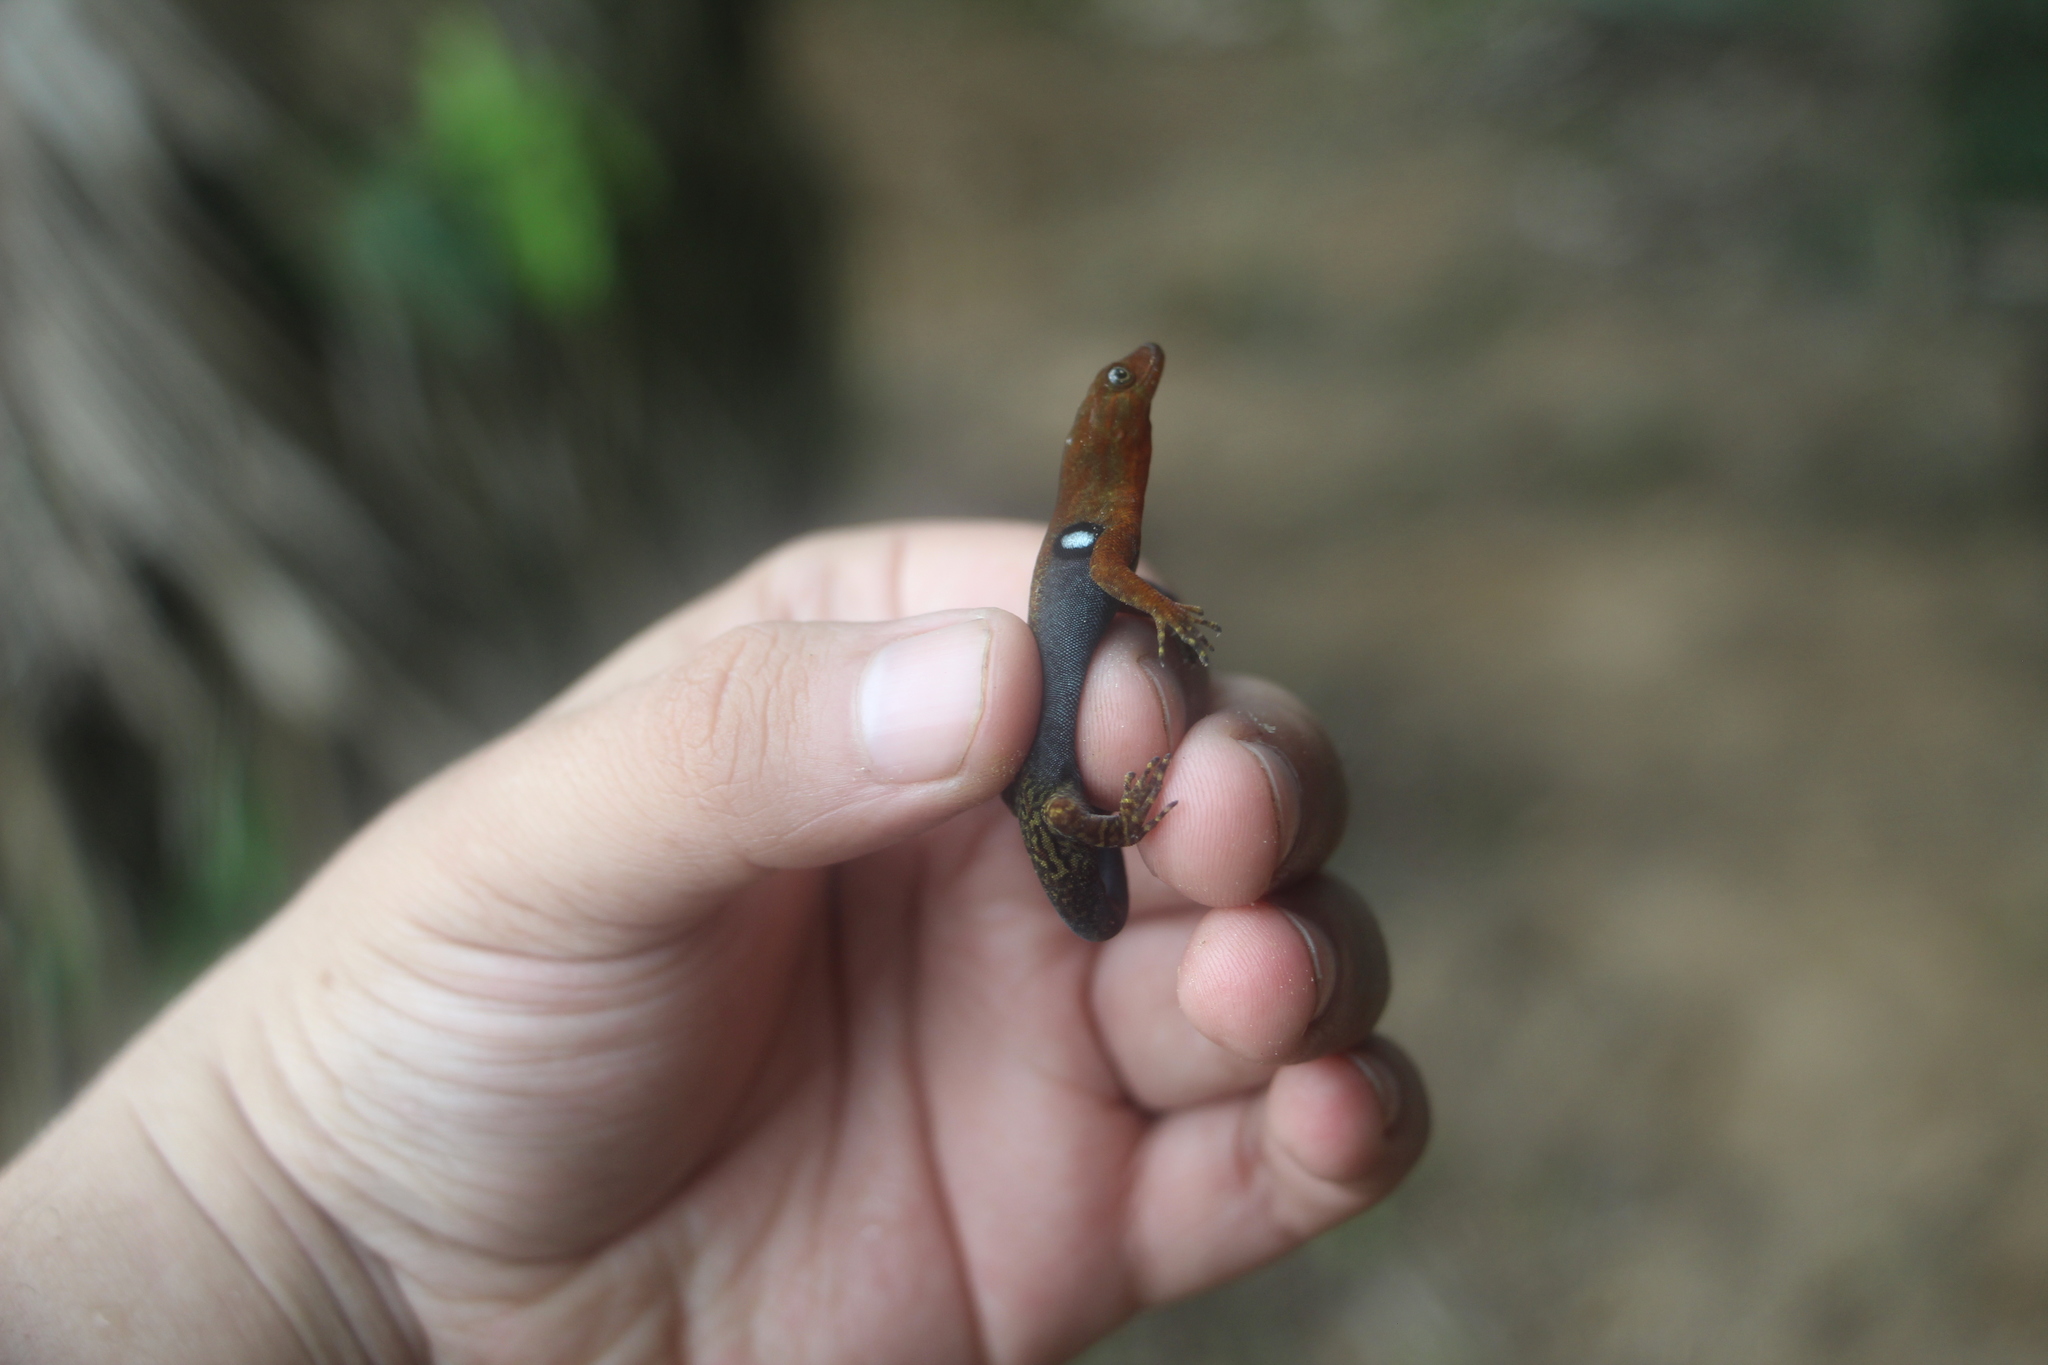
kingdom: Animalia
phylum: Chordata
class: Squamata
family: Sphaerodactylidae
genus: Gonatodes
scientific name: Gonatodes riveroi
